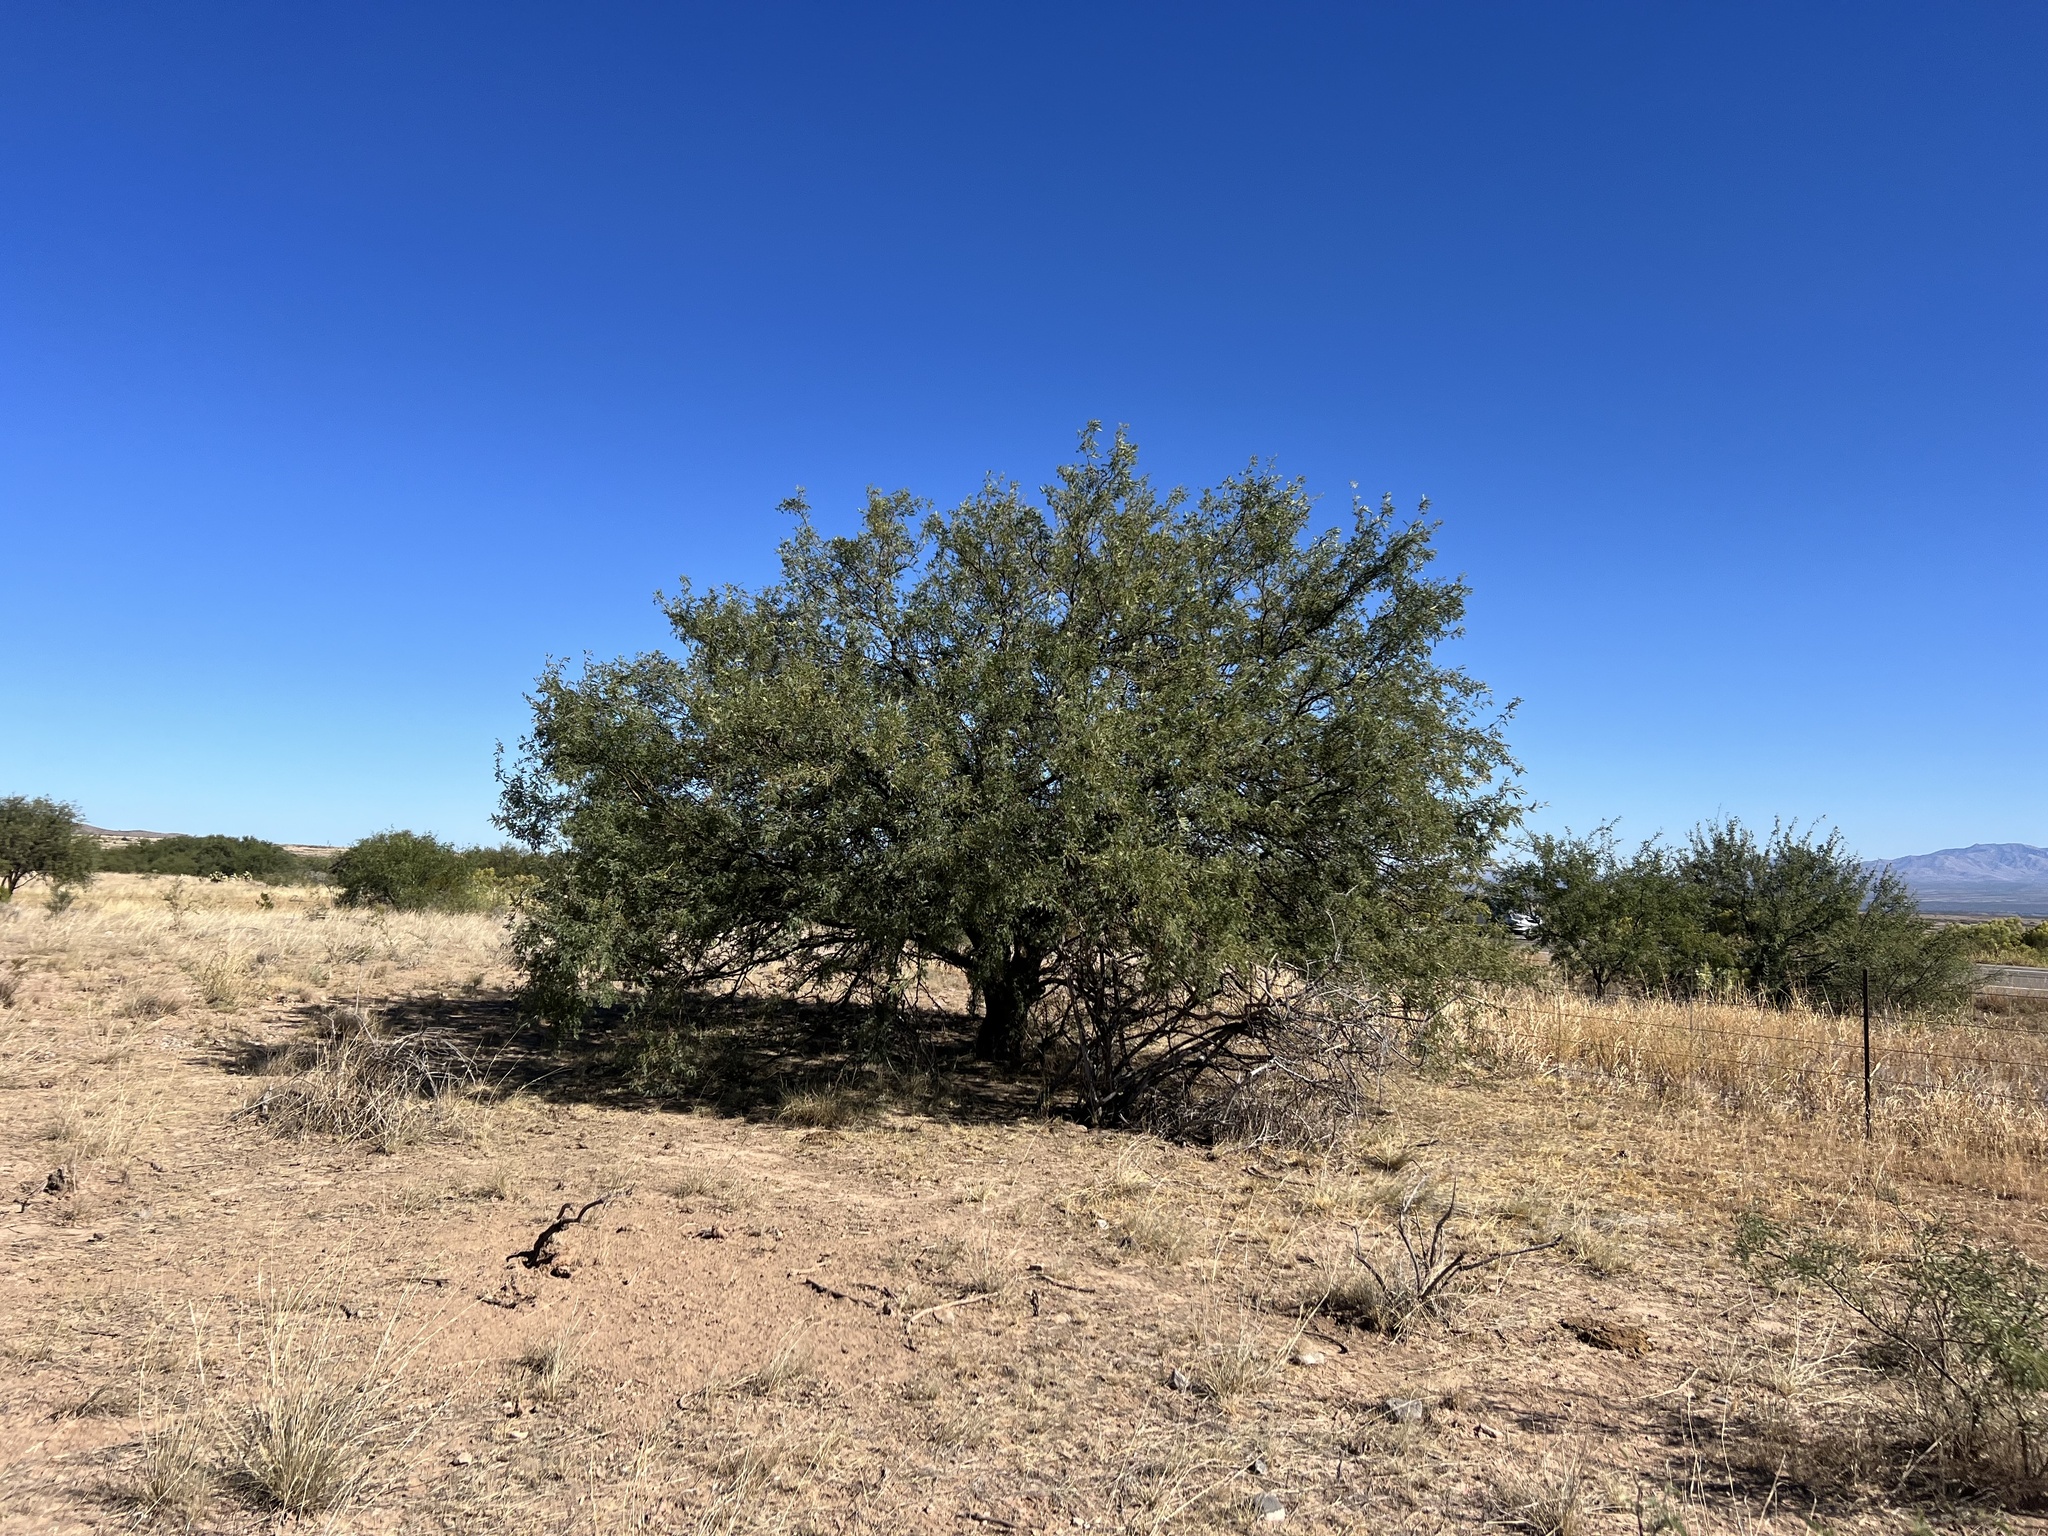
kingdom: Plantae
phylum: Tracheophyta
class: Magnoliopsida
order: Fabales
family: Fabaceae
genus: Prosopis
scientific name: Prosopis velutina
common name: Velvet mesquite
